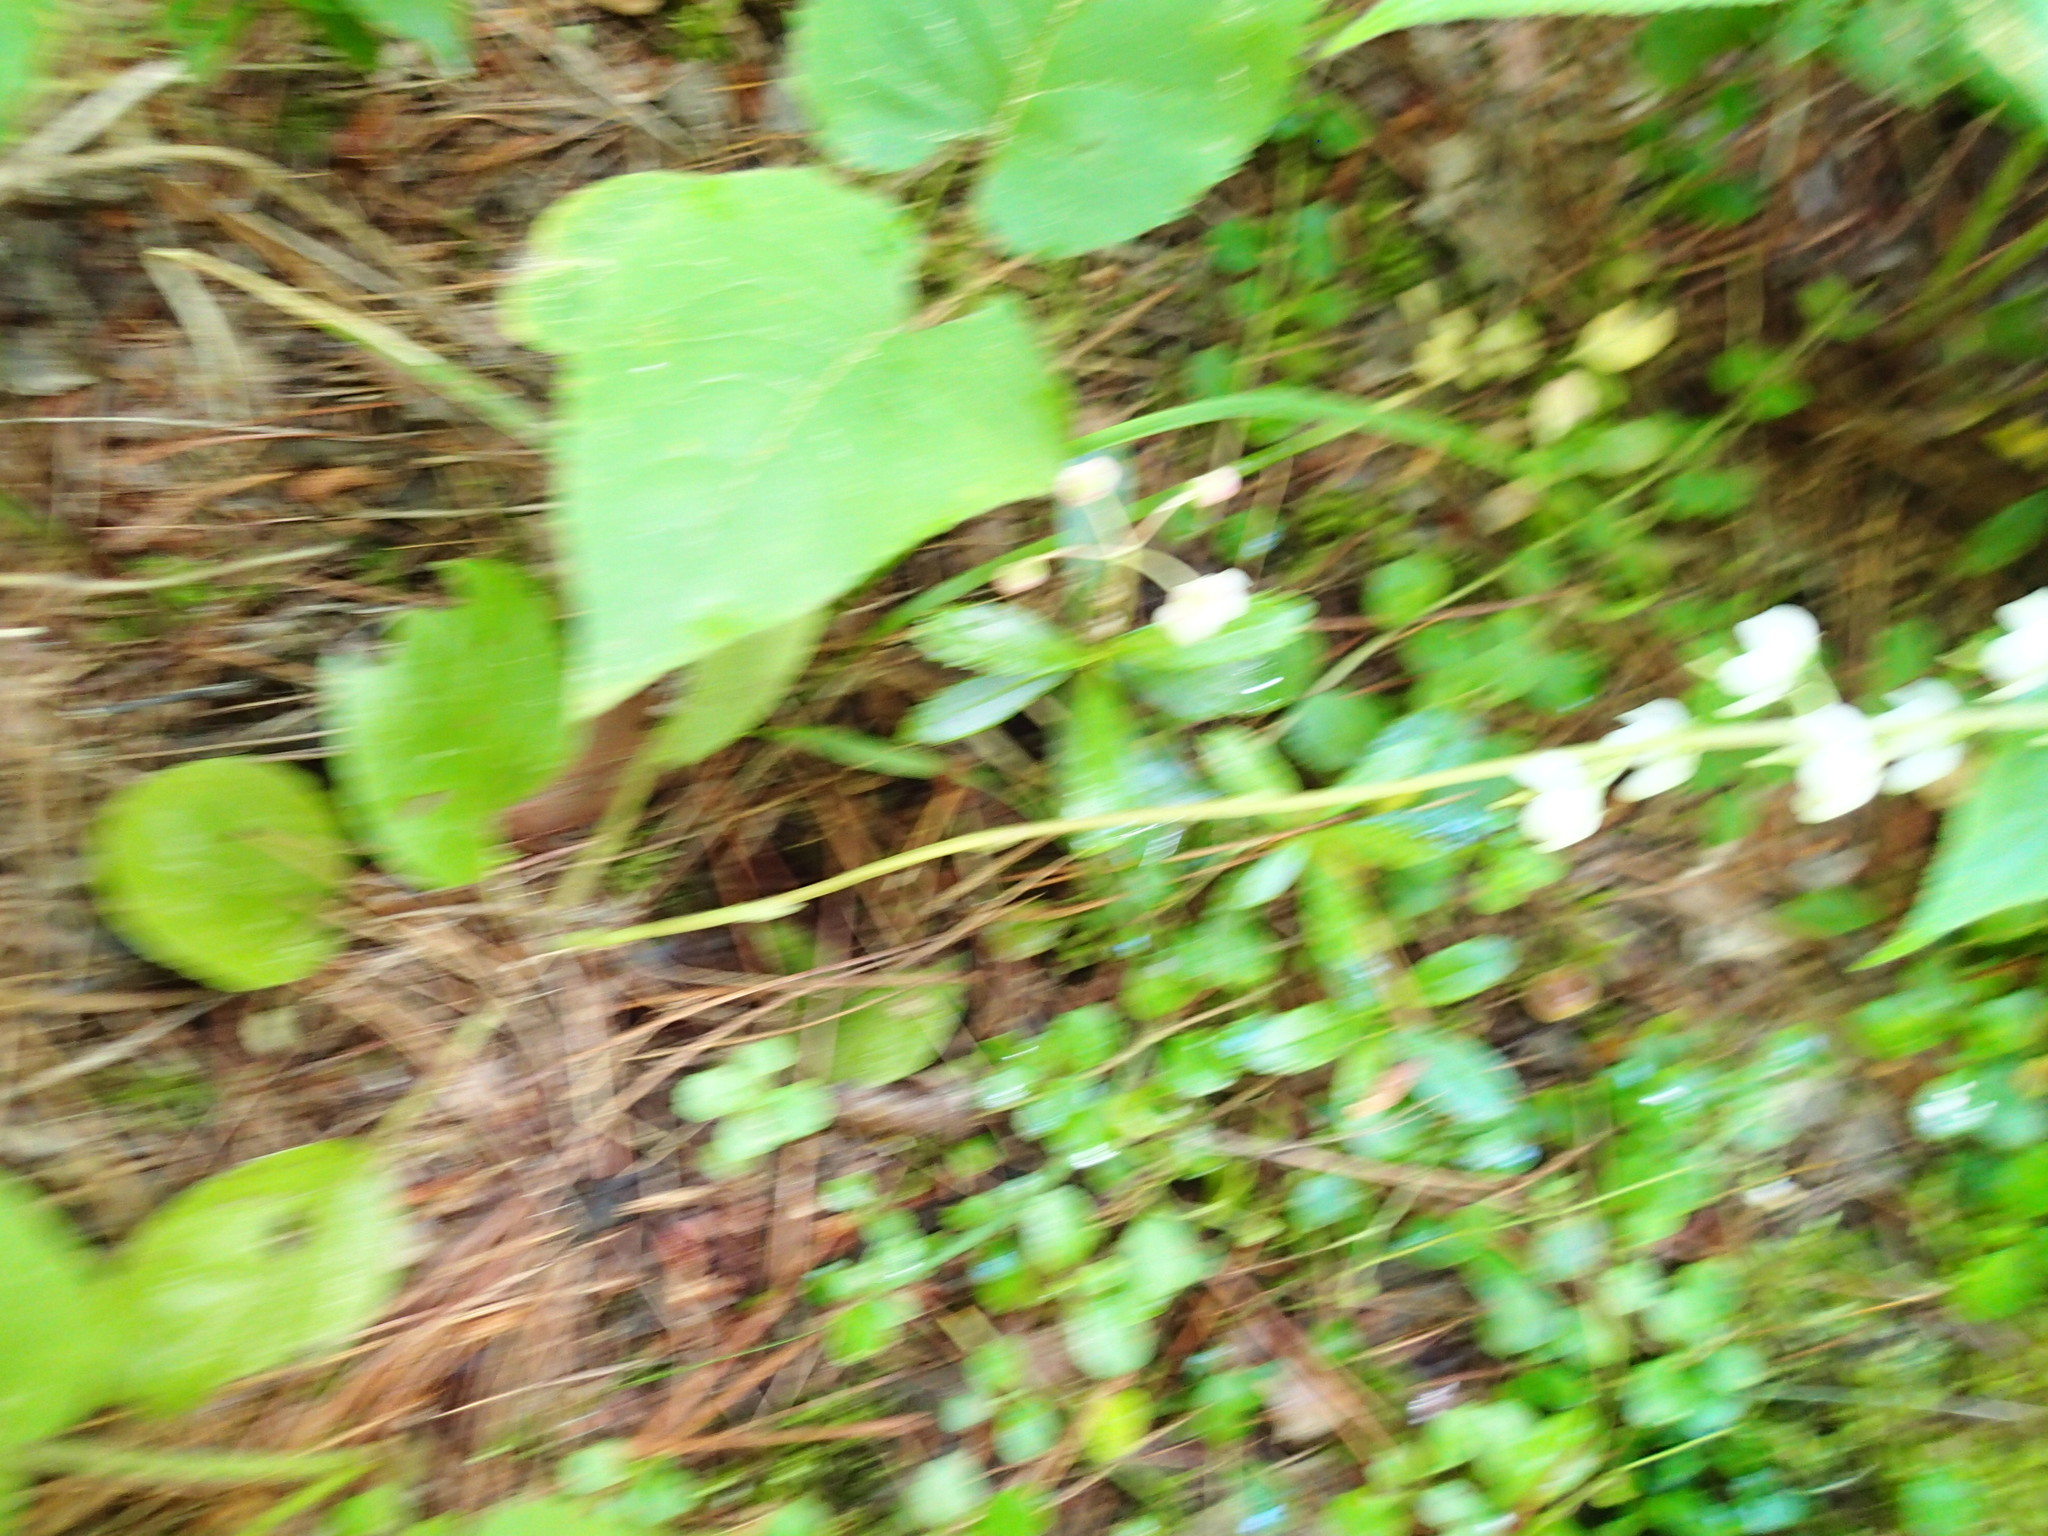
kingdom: Plantae
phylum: Tracheophyta
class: Magnoliopsida
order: Ericales
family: Ericaceae
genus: Pyrola
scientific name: Pyrola elliptica
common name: Shinleaf
